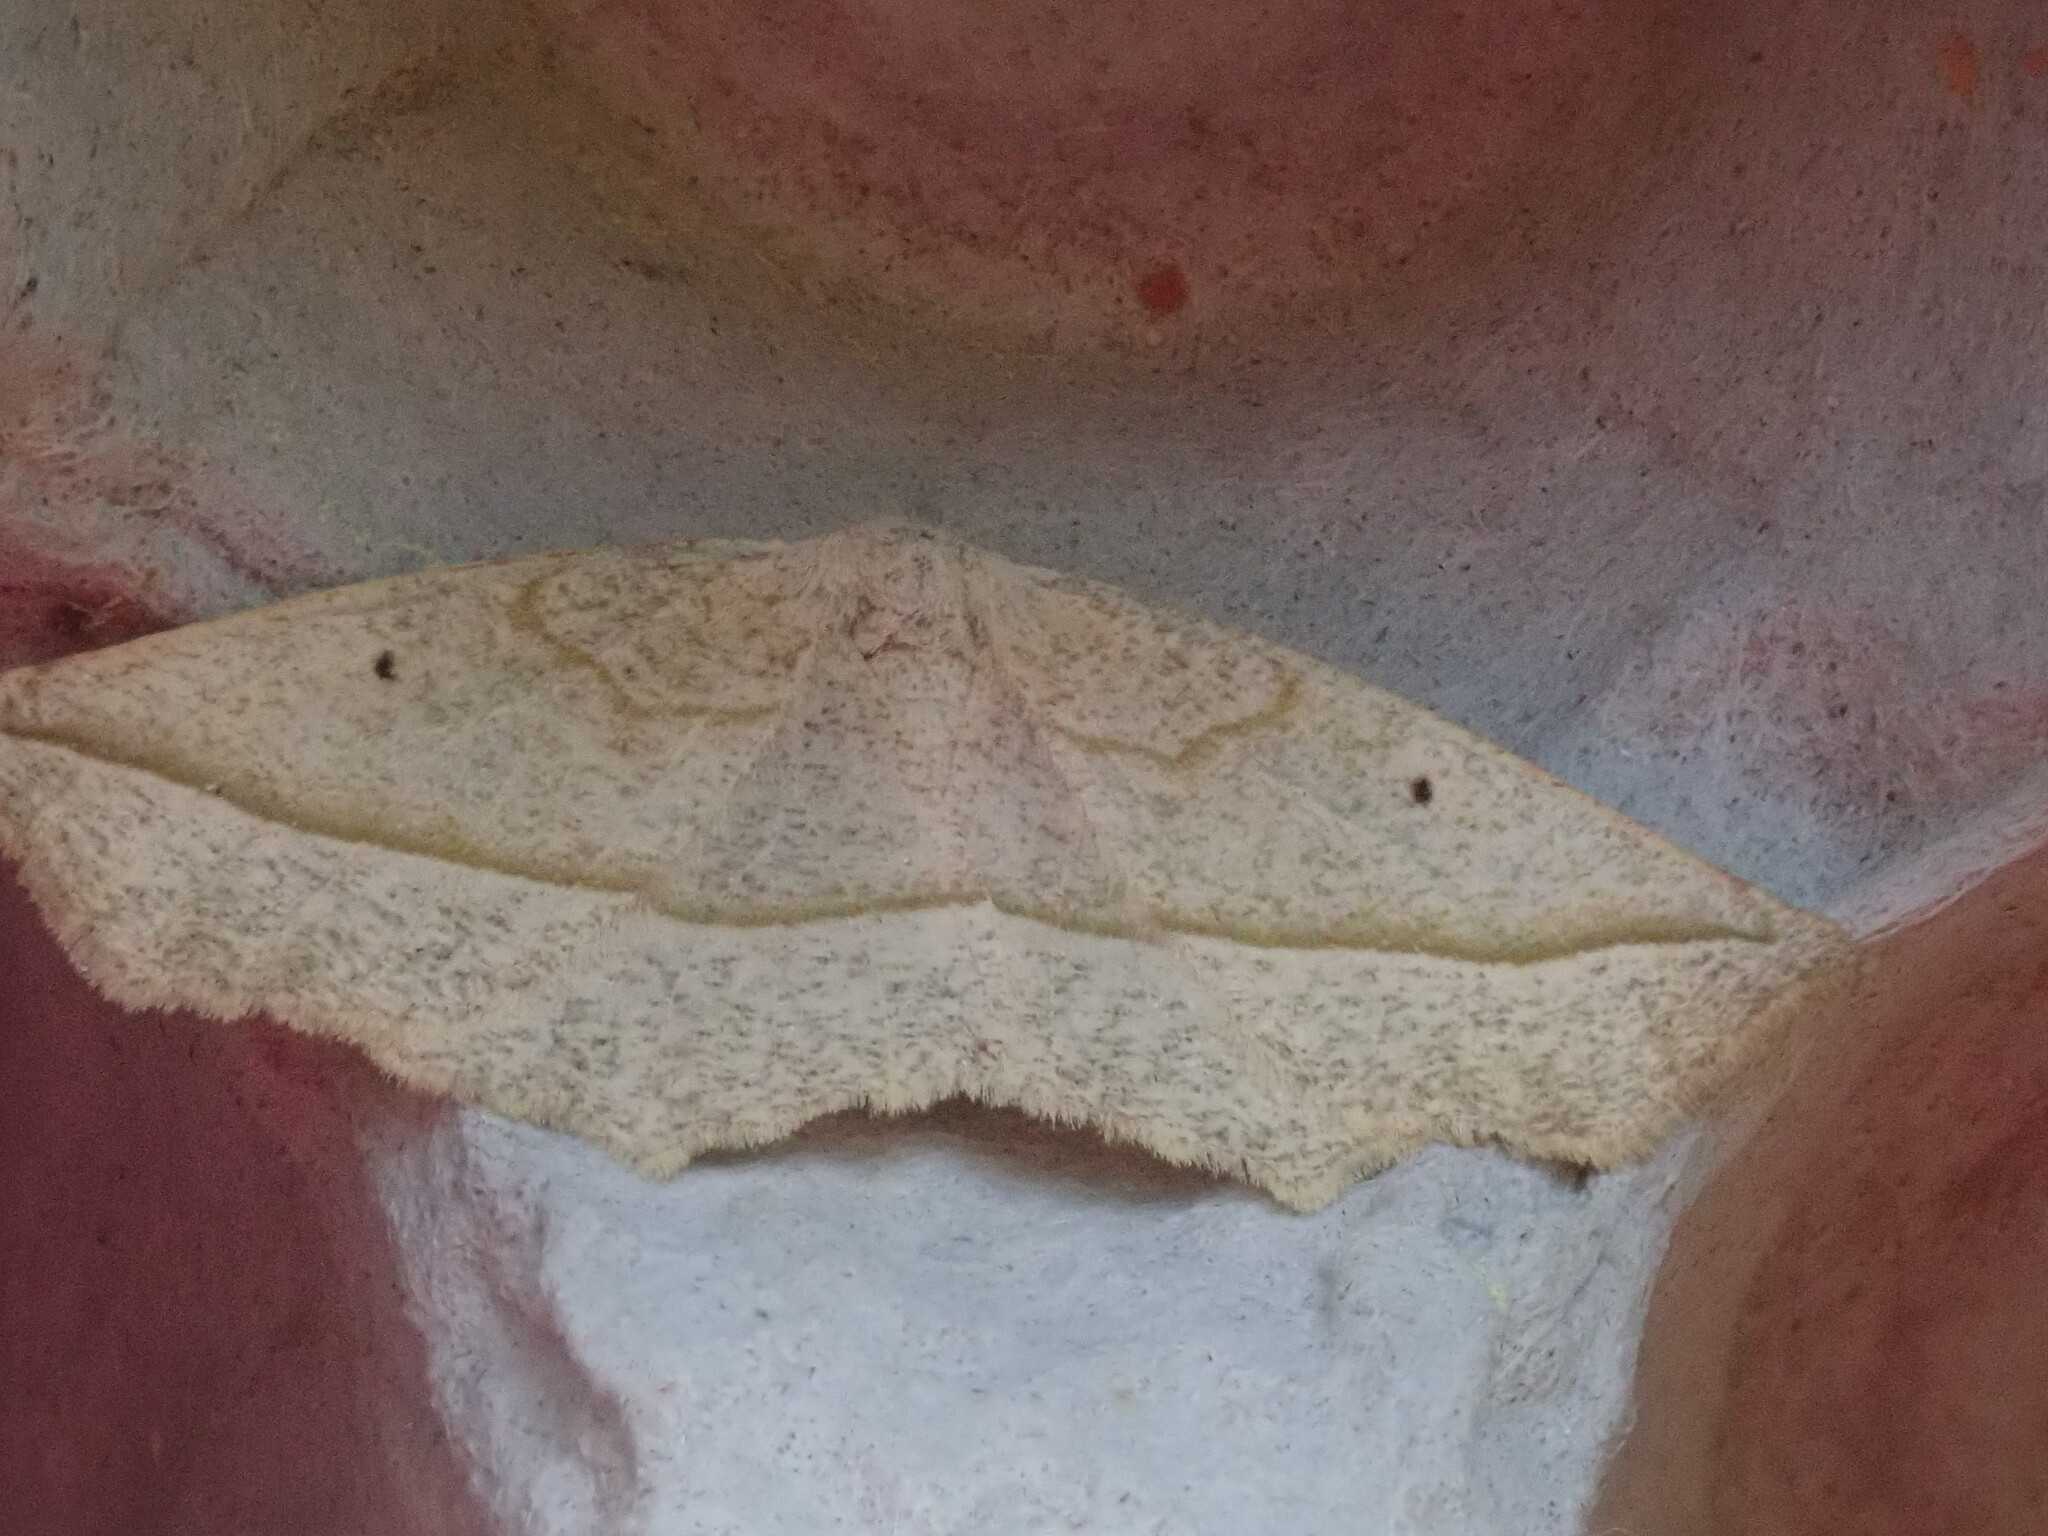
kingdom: Animalia
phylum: Arthropoda
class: Insecta
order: Lepidoptera
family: Geometridae
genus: Eusarca
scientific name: Eusarca confusaria
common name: Confused eusarca
